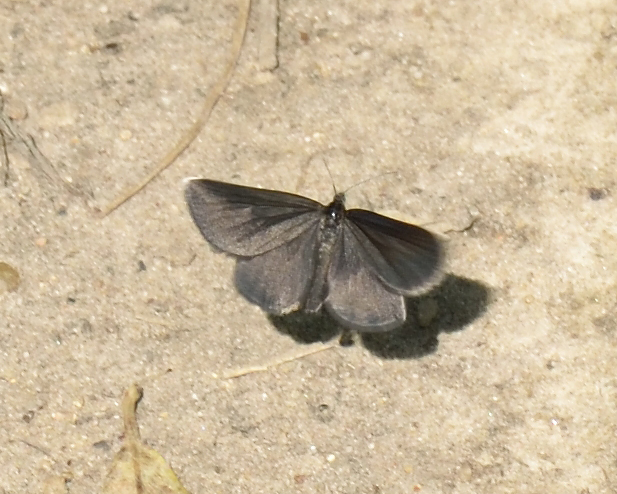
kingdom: Animalia
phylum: Arthropoda
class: Insecta
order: Lepidoptera
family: Geometridae
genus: Odezia
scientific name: Odezia atrata
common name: Chimney sweeper
